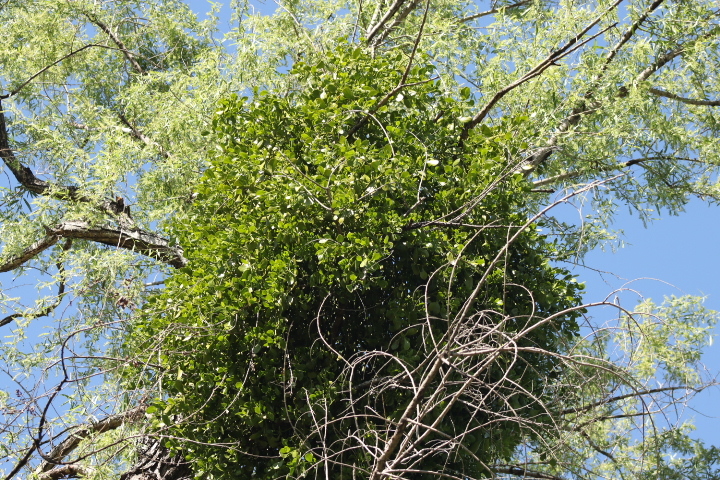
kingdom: Plantae
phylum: Tracheophyta
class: Magnoliopsida
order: Santalales
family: Viscaceae
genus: Phoradendron
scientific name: Phoradendron
